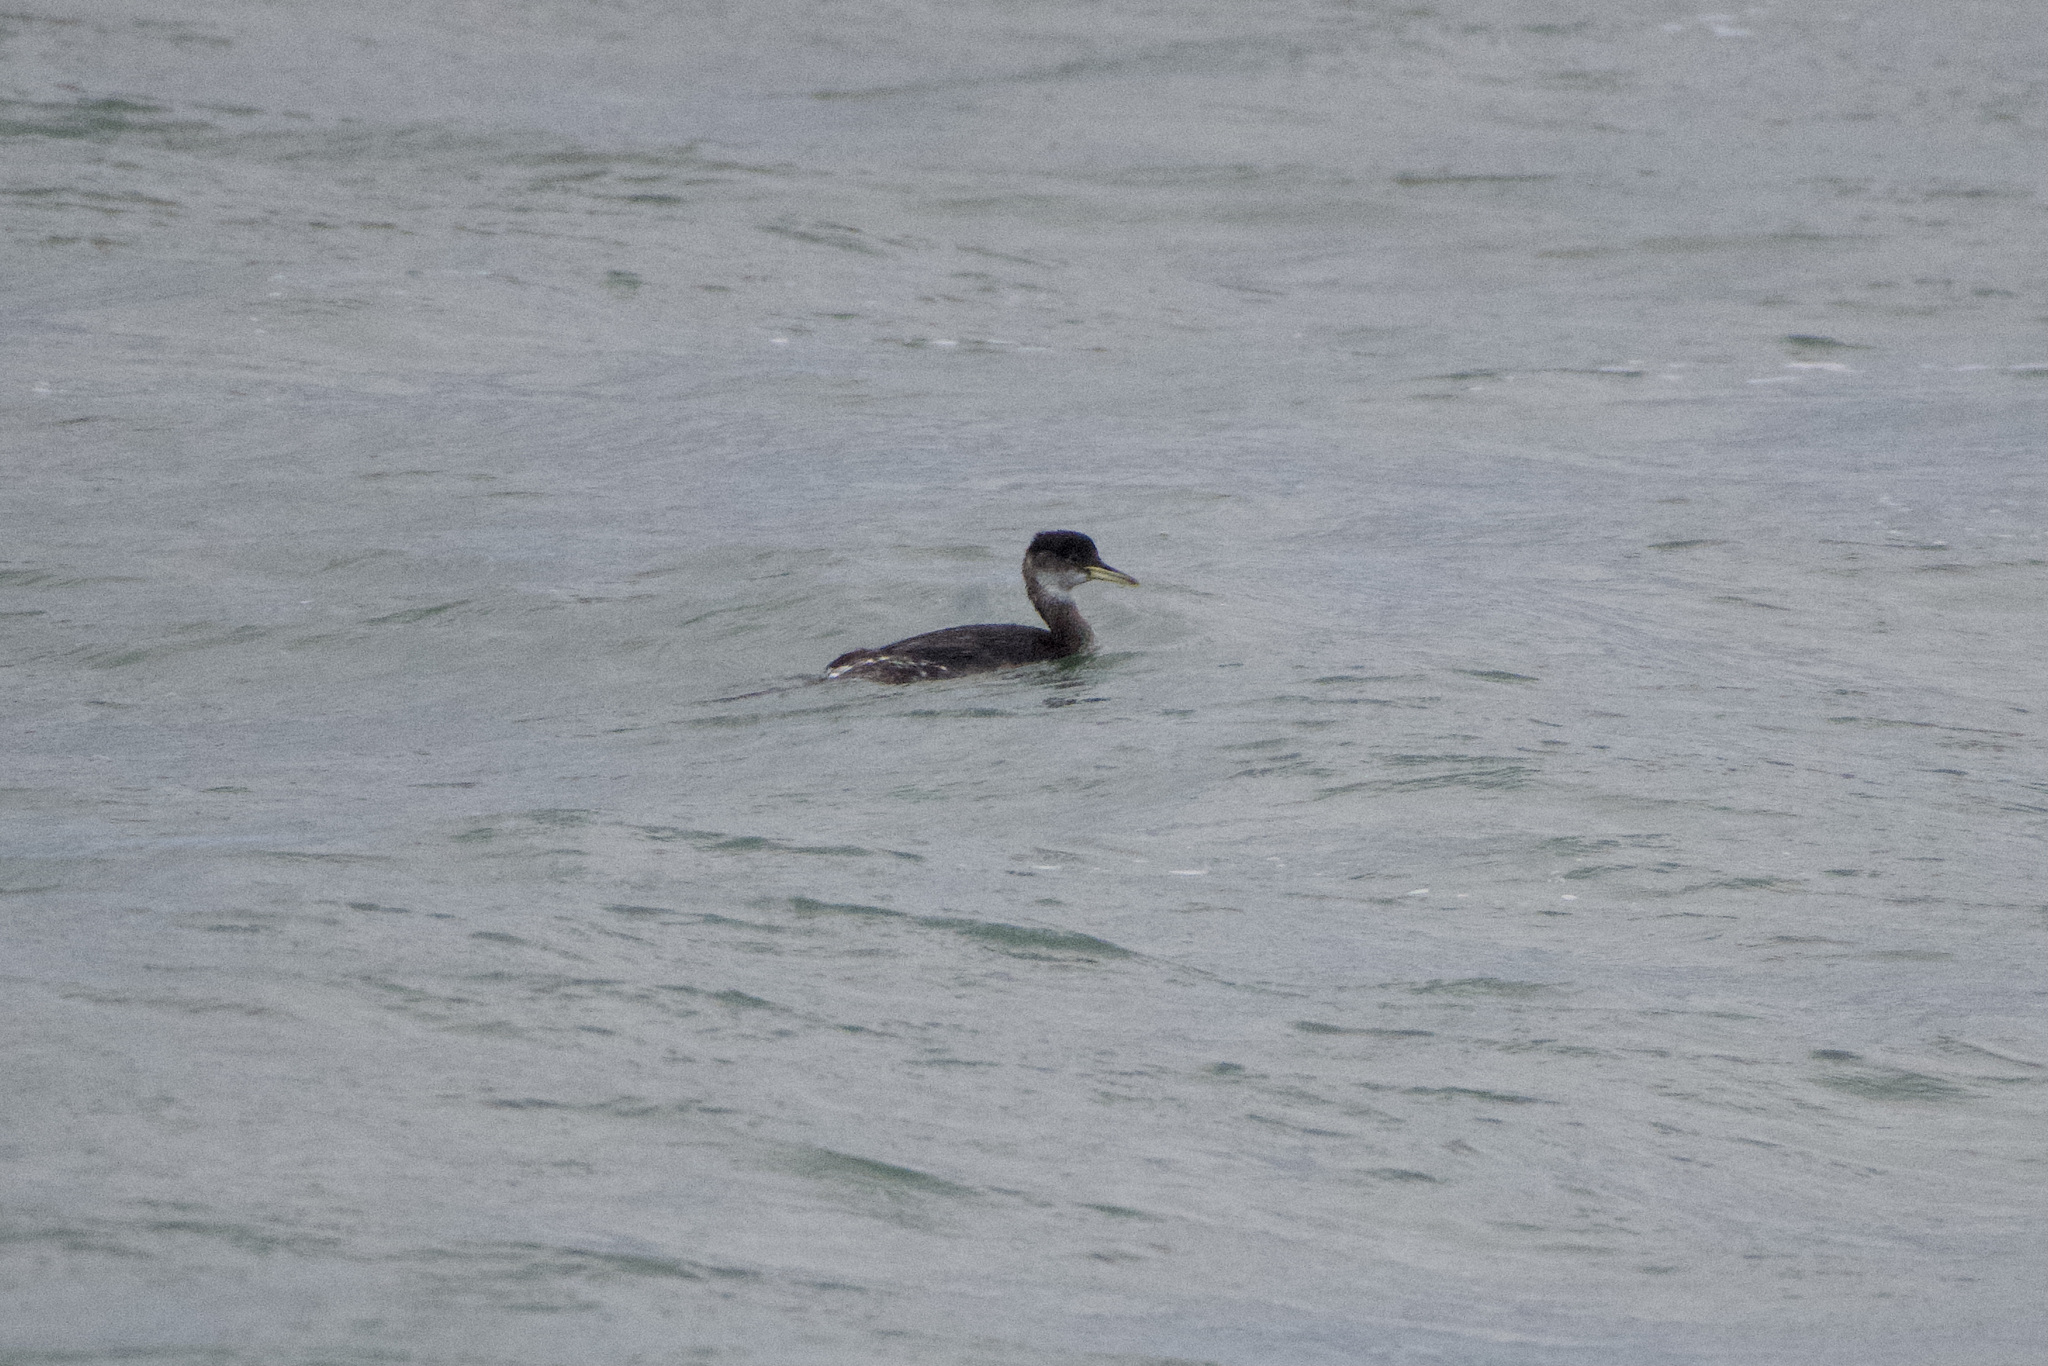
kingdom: Animalia
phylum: Chordata
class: Aves
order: Podicipediformes
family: Podicipedidae
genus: Podiceps
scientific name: Podiceps grisegena
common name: Red-necked grebe
